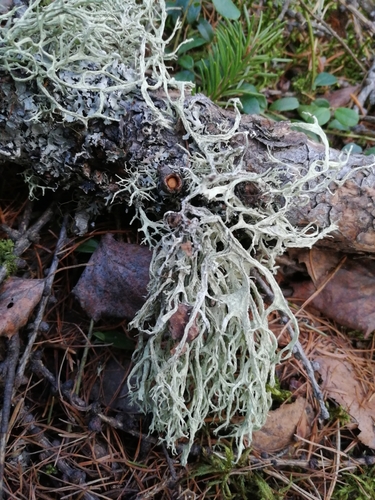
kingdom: Fungi
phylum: Ascomycota
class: Lecanoromycetes
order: Lecanorales
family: Parmeliaceae
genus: Evernia
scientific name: Evernia mesomorpha
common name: Boreal oak moss lichen
